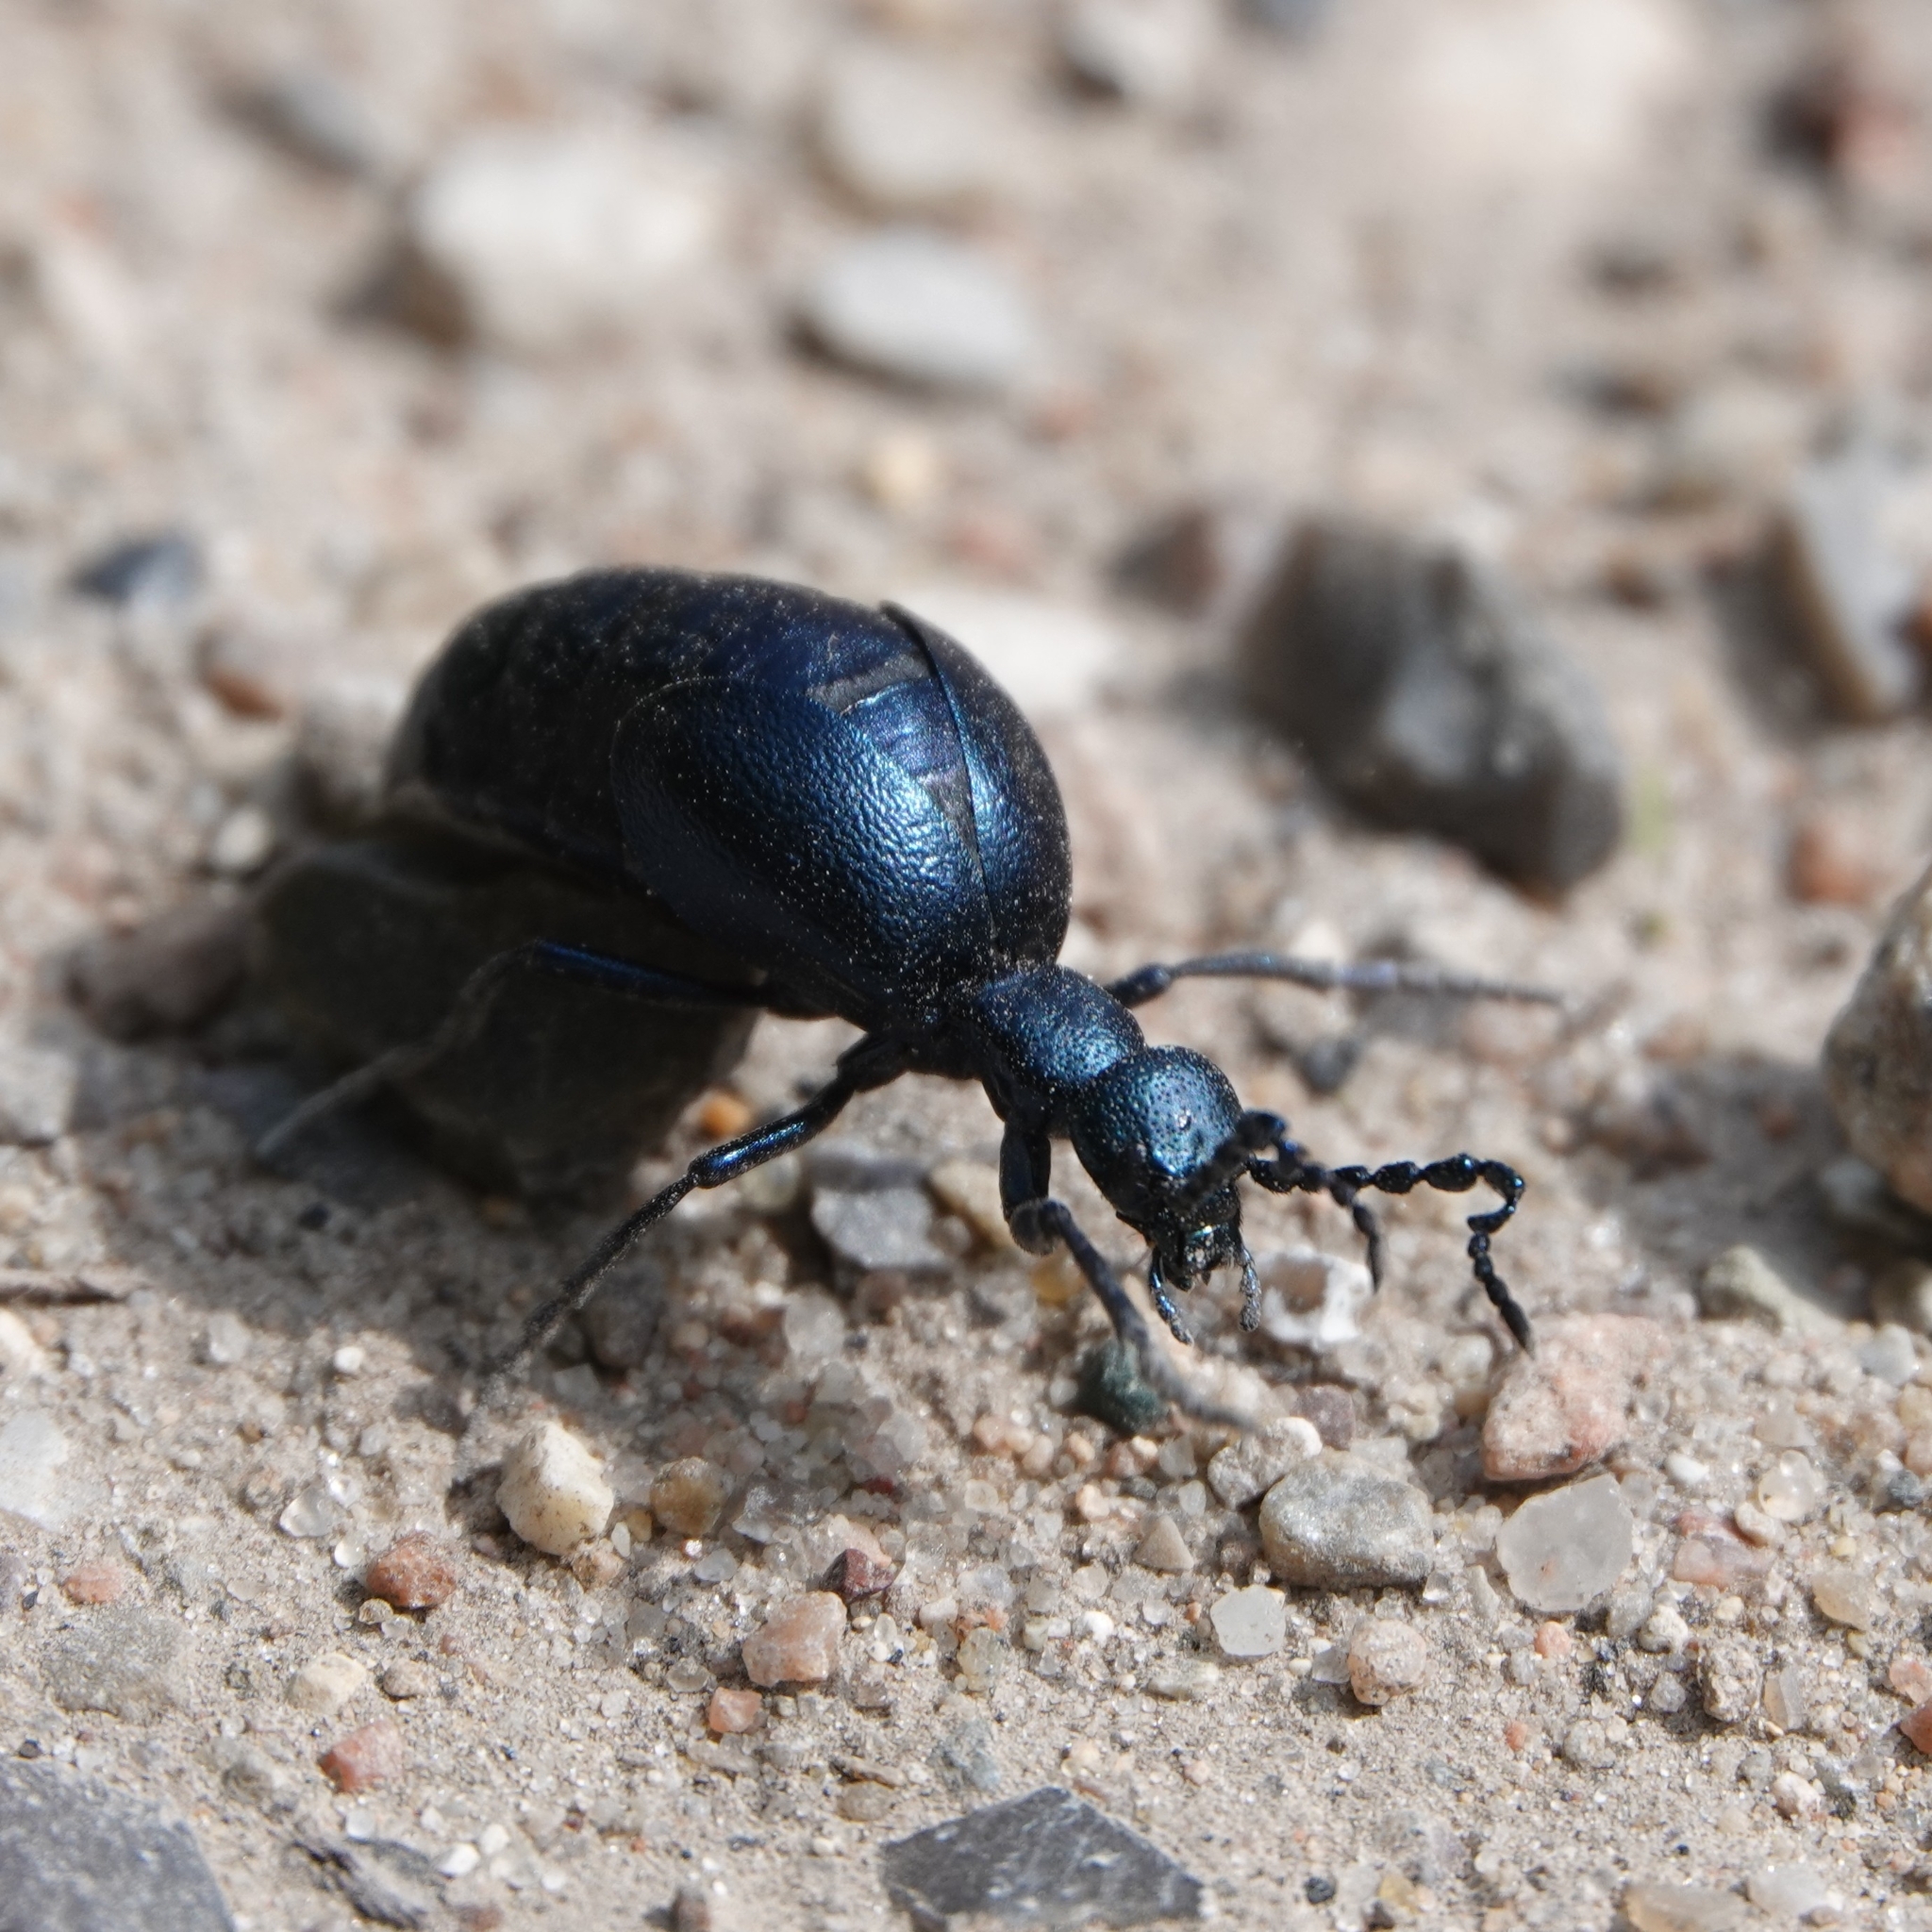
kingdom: Animalia
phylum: Arthropoda
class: Insecta
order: Coleoptera
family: Meloidae
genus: Meloe
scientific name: Meloe violaceus
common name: Violet oil-beetle
